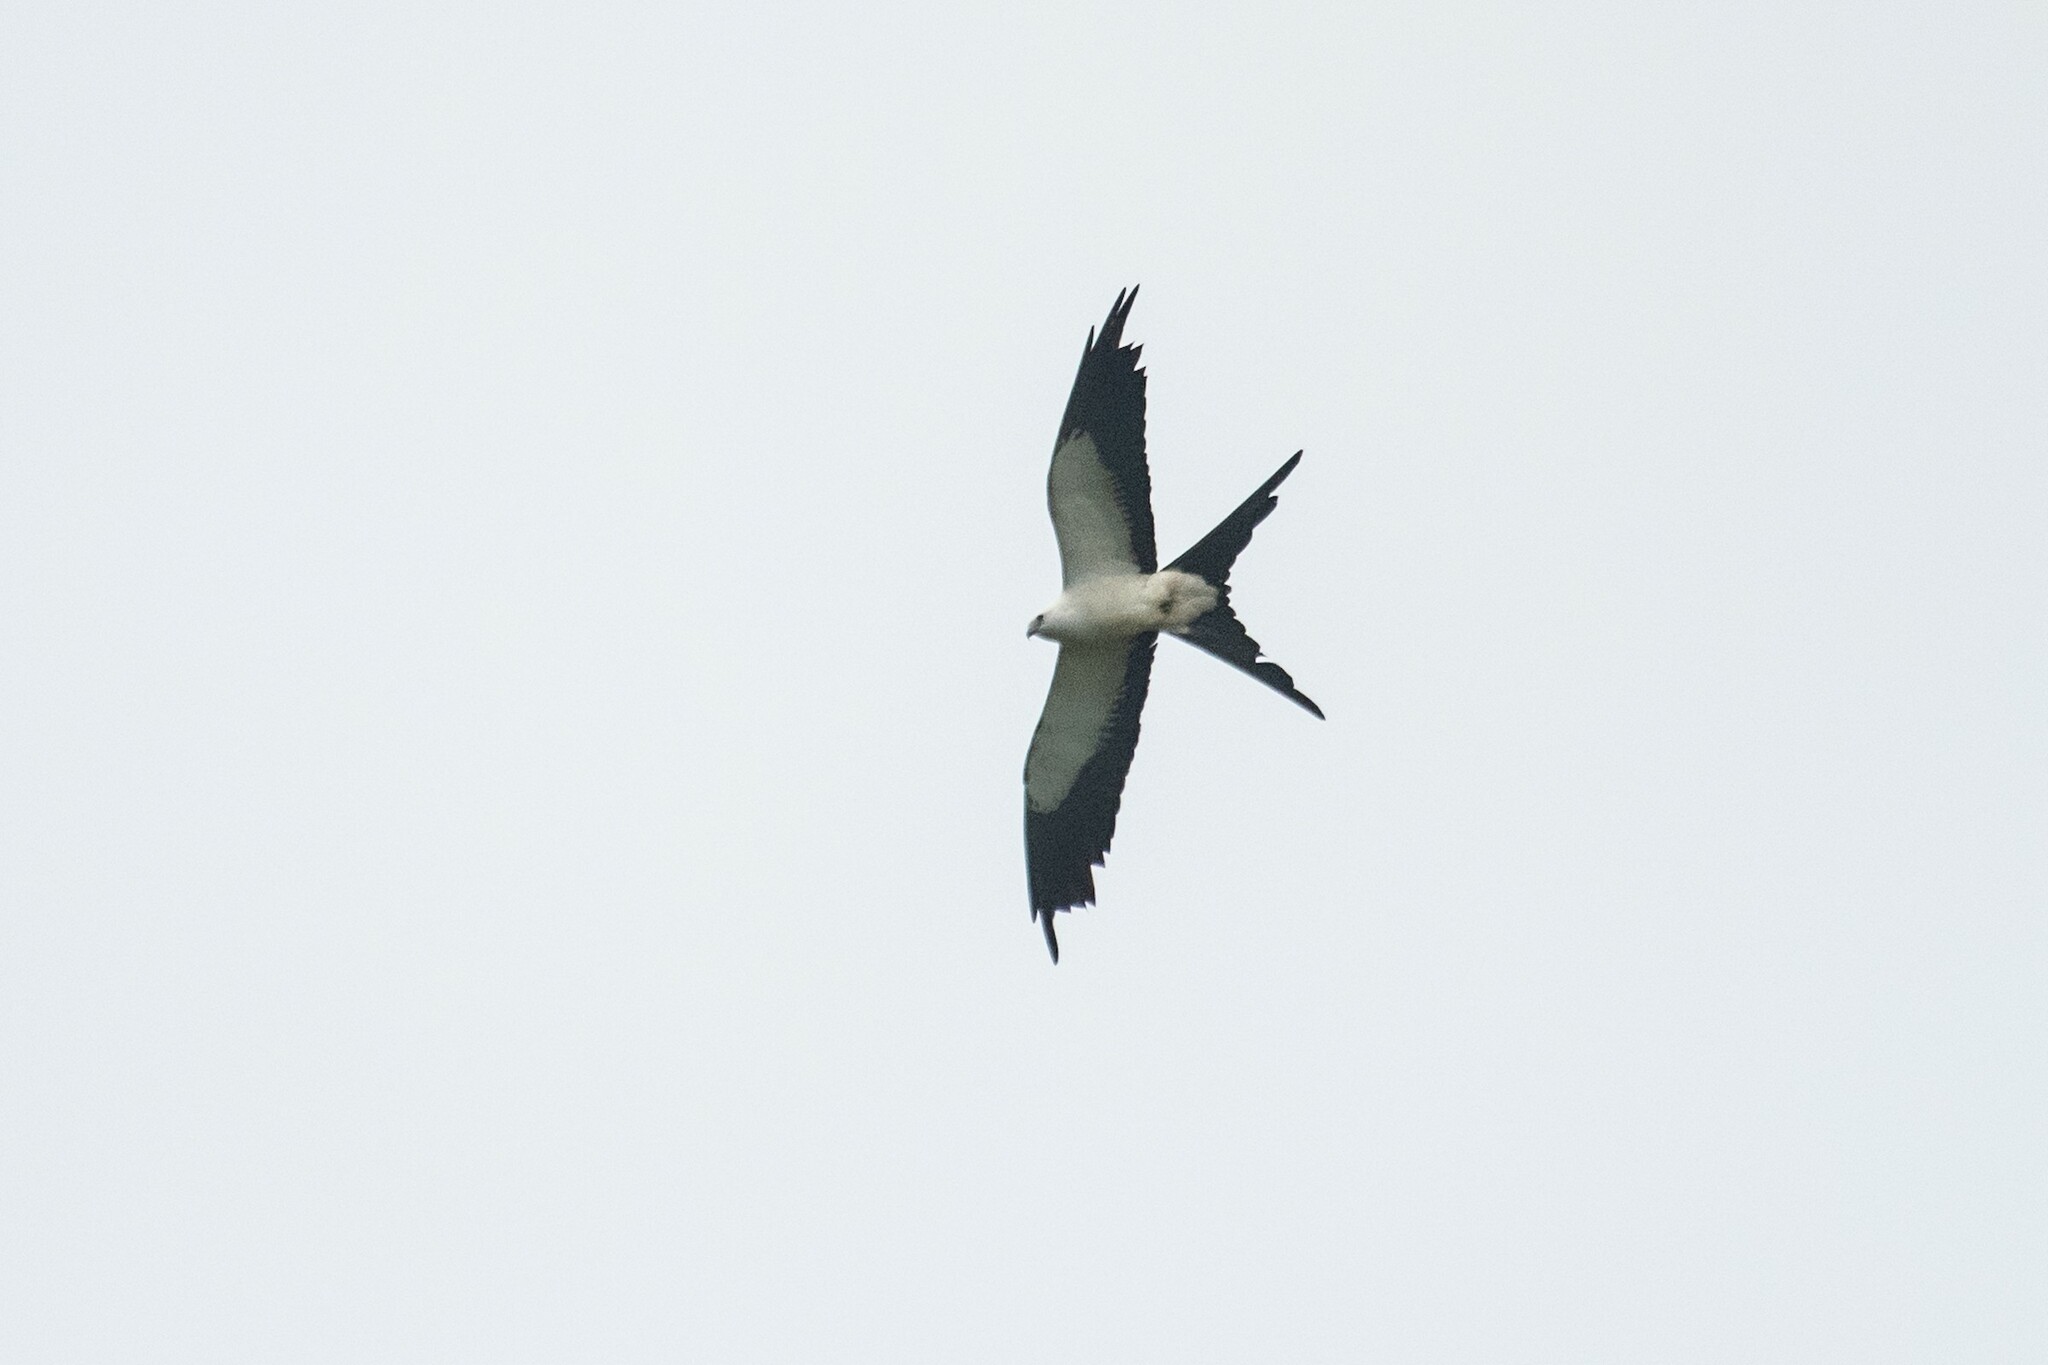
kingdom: Animalia
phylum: Chordata
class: Aves
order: Accipitriformes
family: Accipitridae
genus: Elanoides
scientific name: Elanoides forficatus
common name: Swallow-tailed kite
